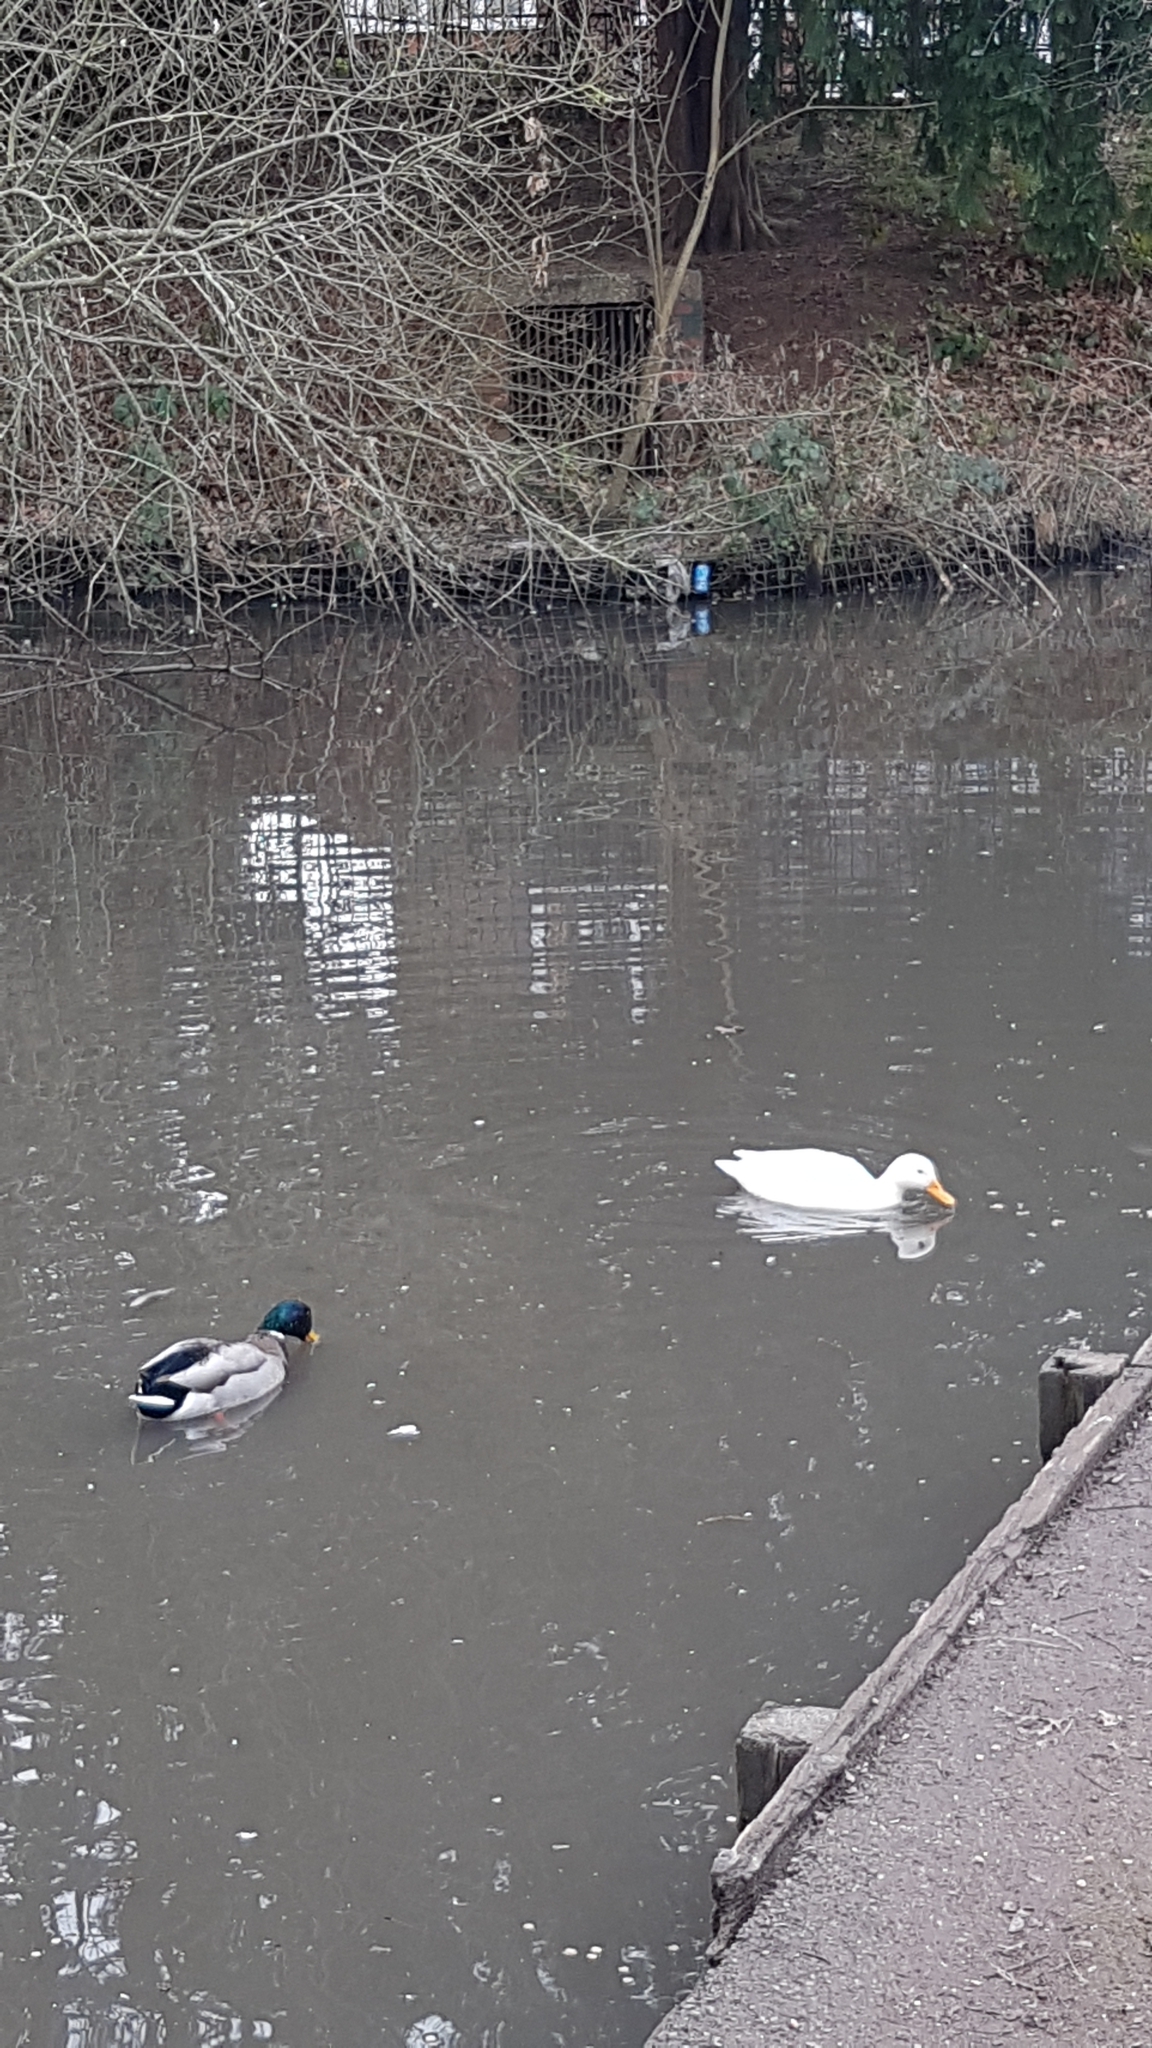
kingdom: Animalia
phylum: Chordata
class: Aves
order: Anseriformes
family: Anatidae
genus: Anas
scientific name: Anas platyrhynchos
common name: Mallard
